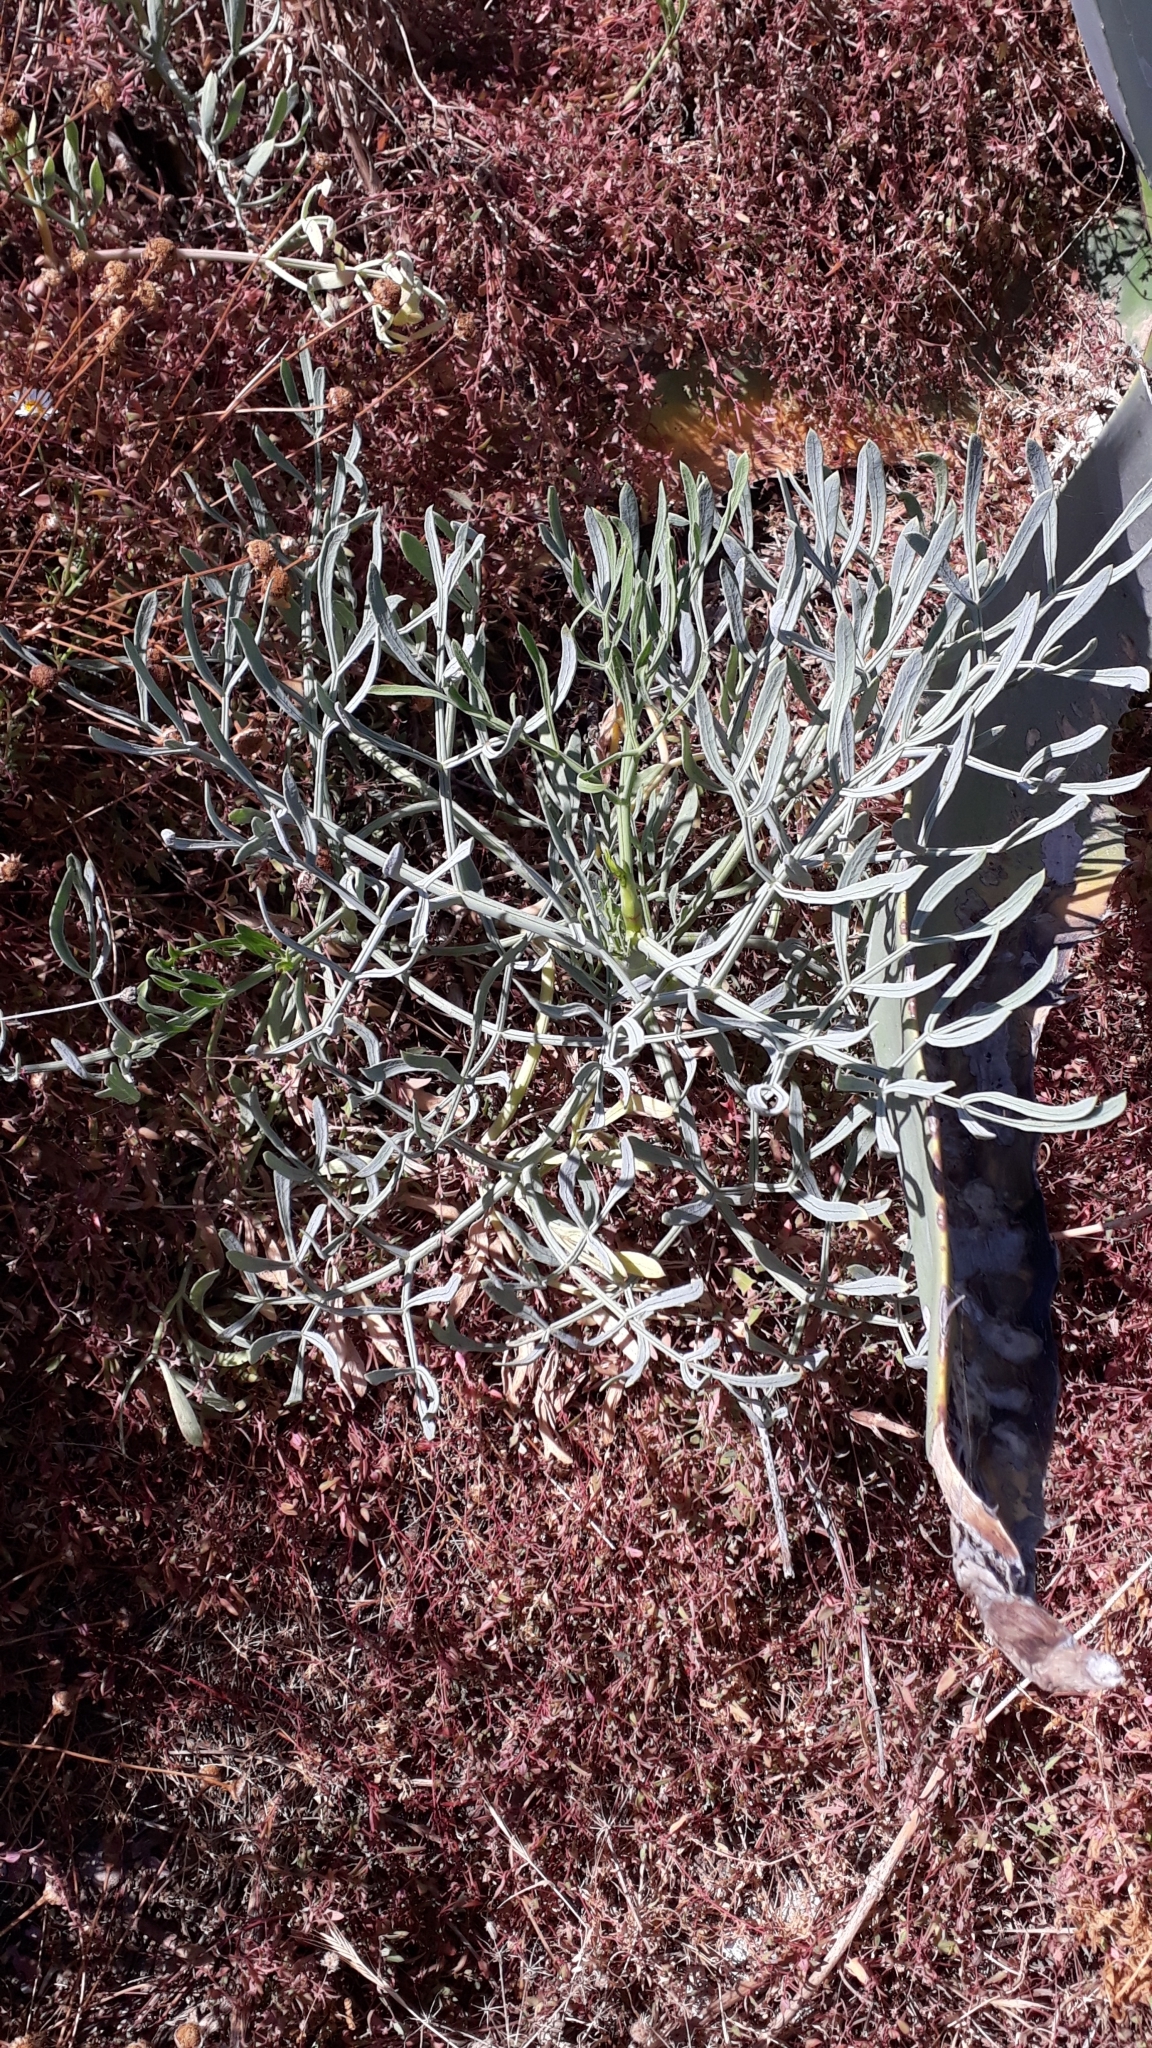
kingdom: Plantae
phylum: Tracheophyta
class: Magnoliopsida
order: Apiales
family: Apiaceae
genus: Crithmum
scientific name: Crithmum maritimum
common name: Rock samphire
